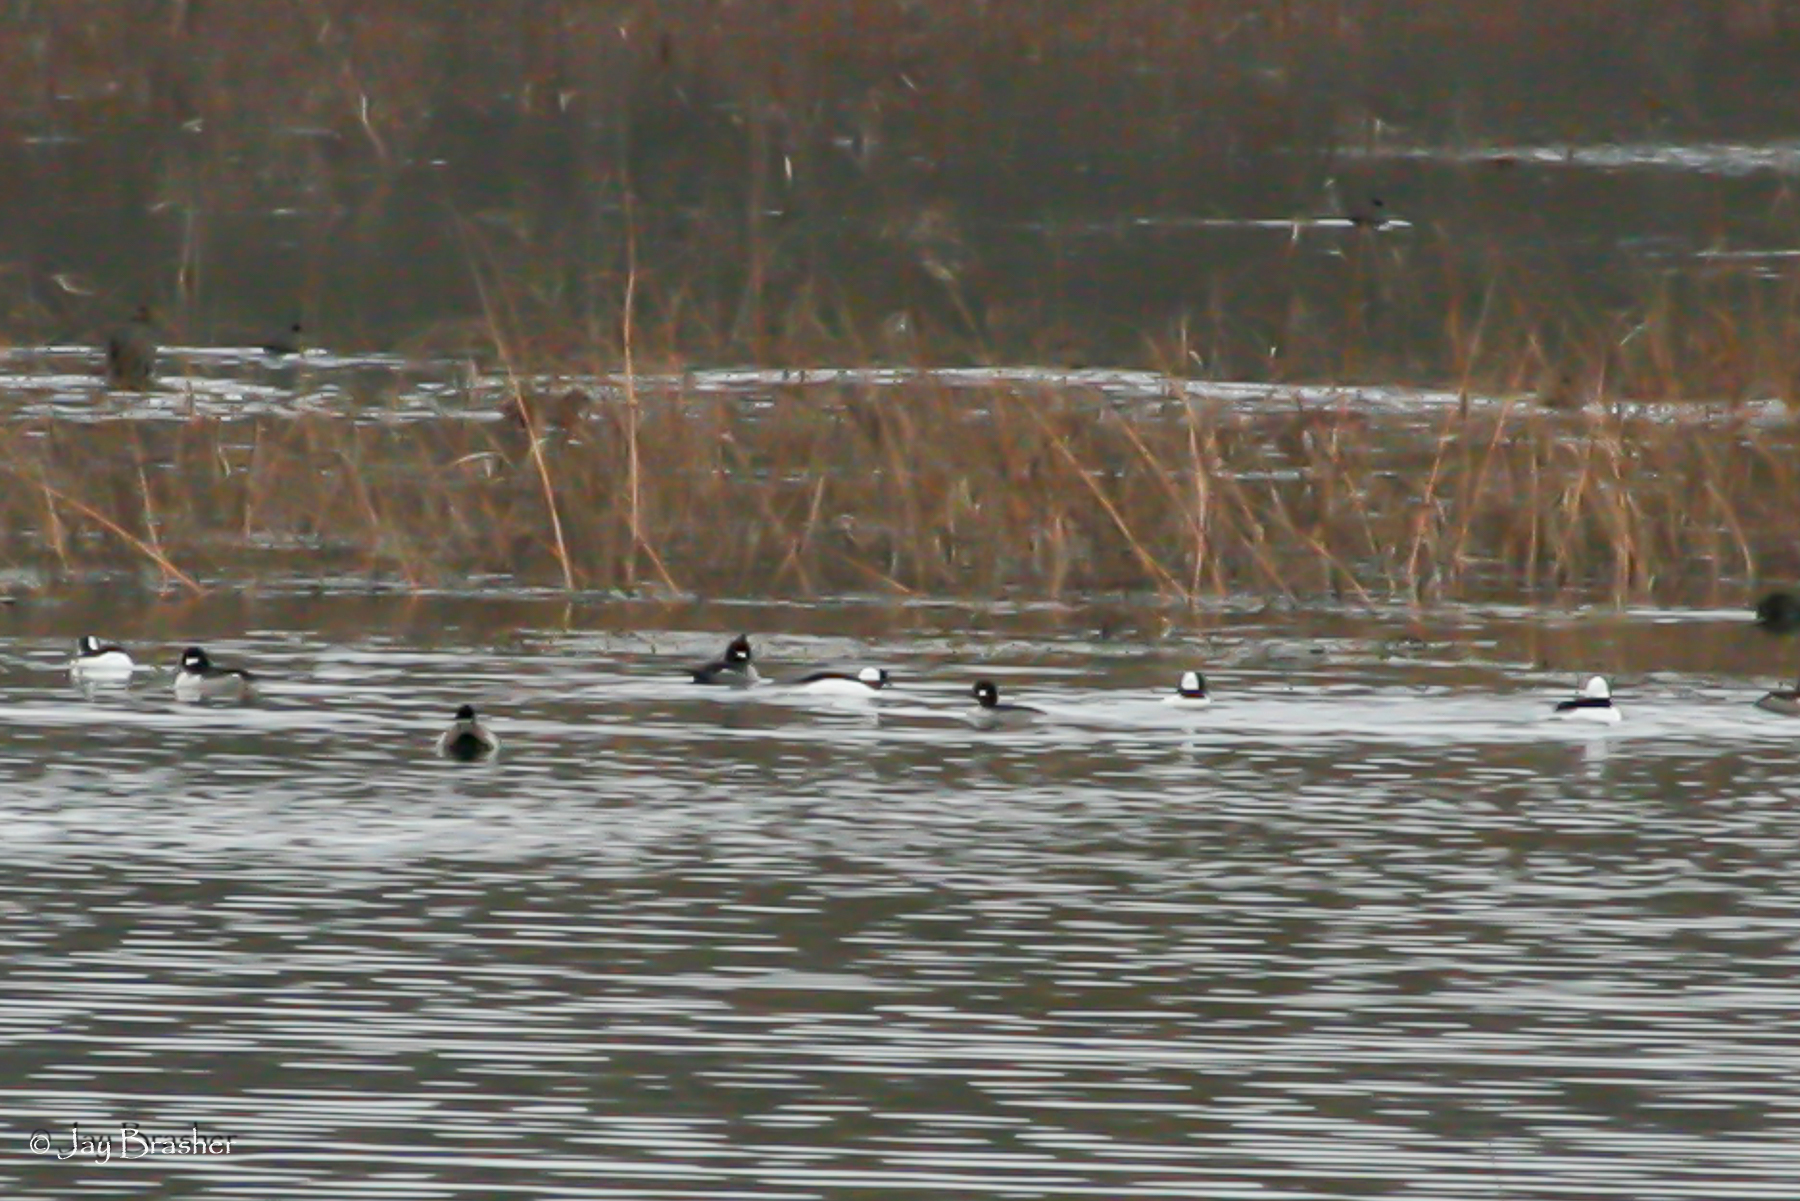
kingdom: Animalia
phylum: Chordata
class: Aves
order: Anseriformes
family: Anatidae
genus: Bucephala
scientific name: Bucephala albeola
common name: Bufflehead
